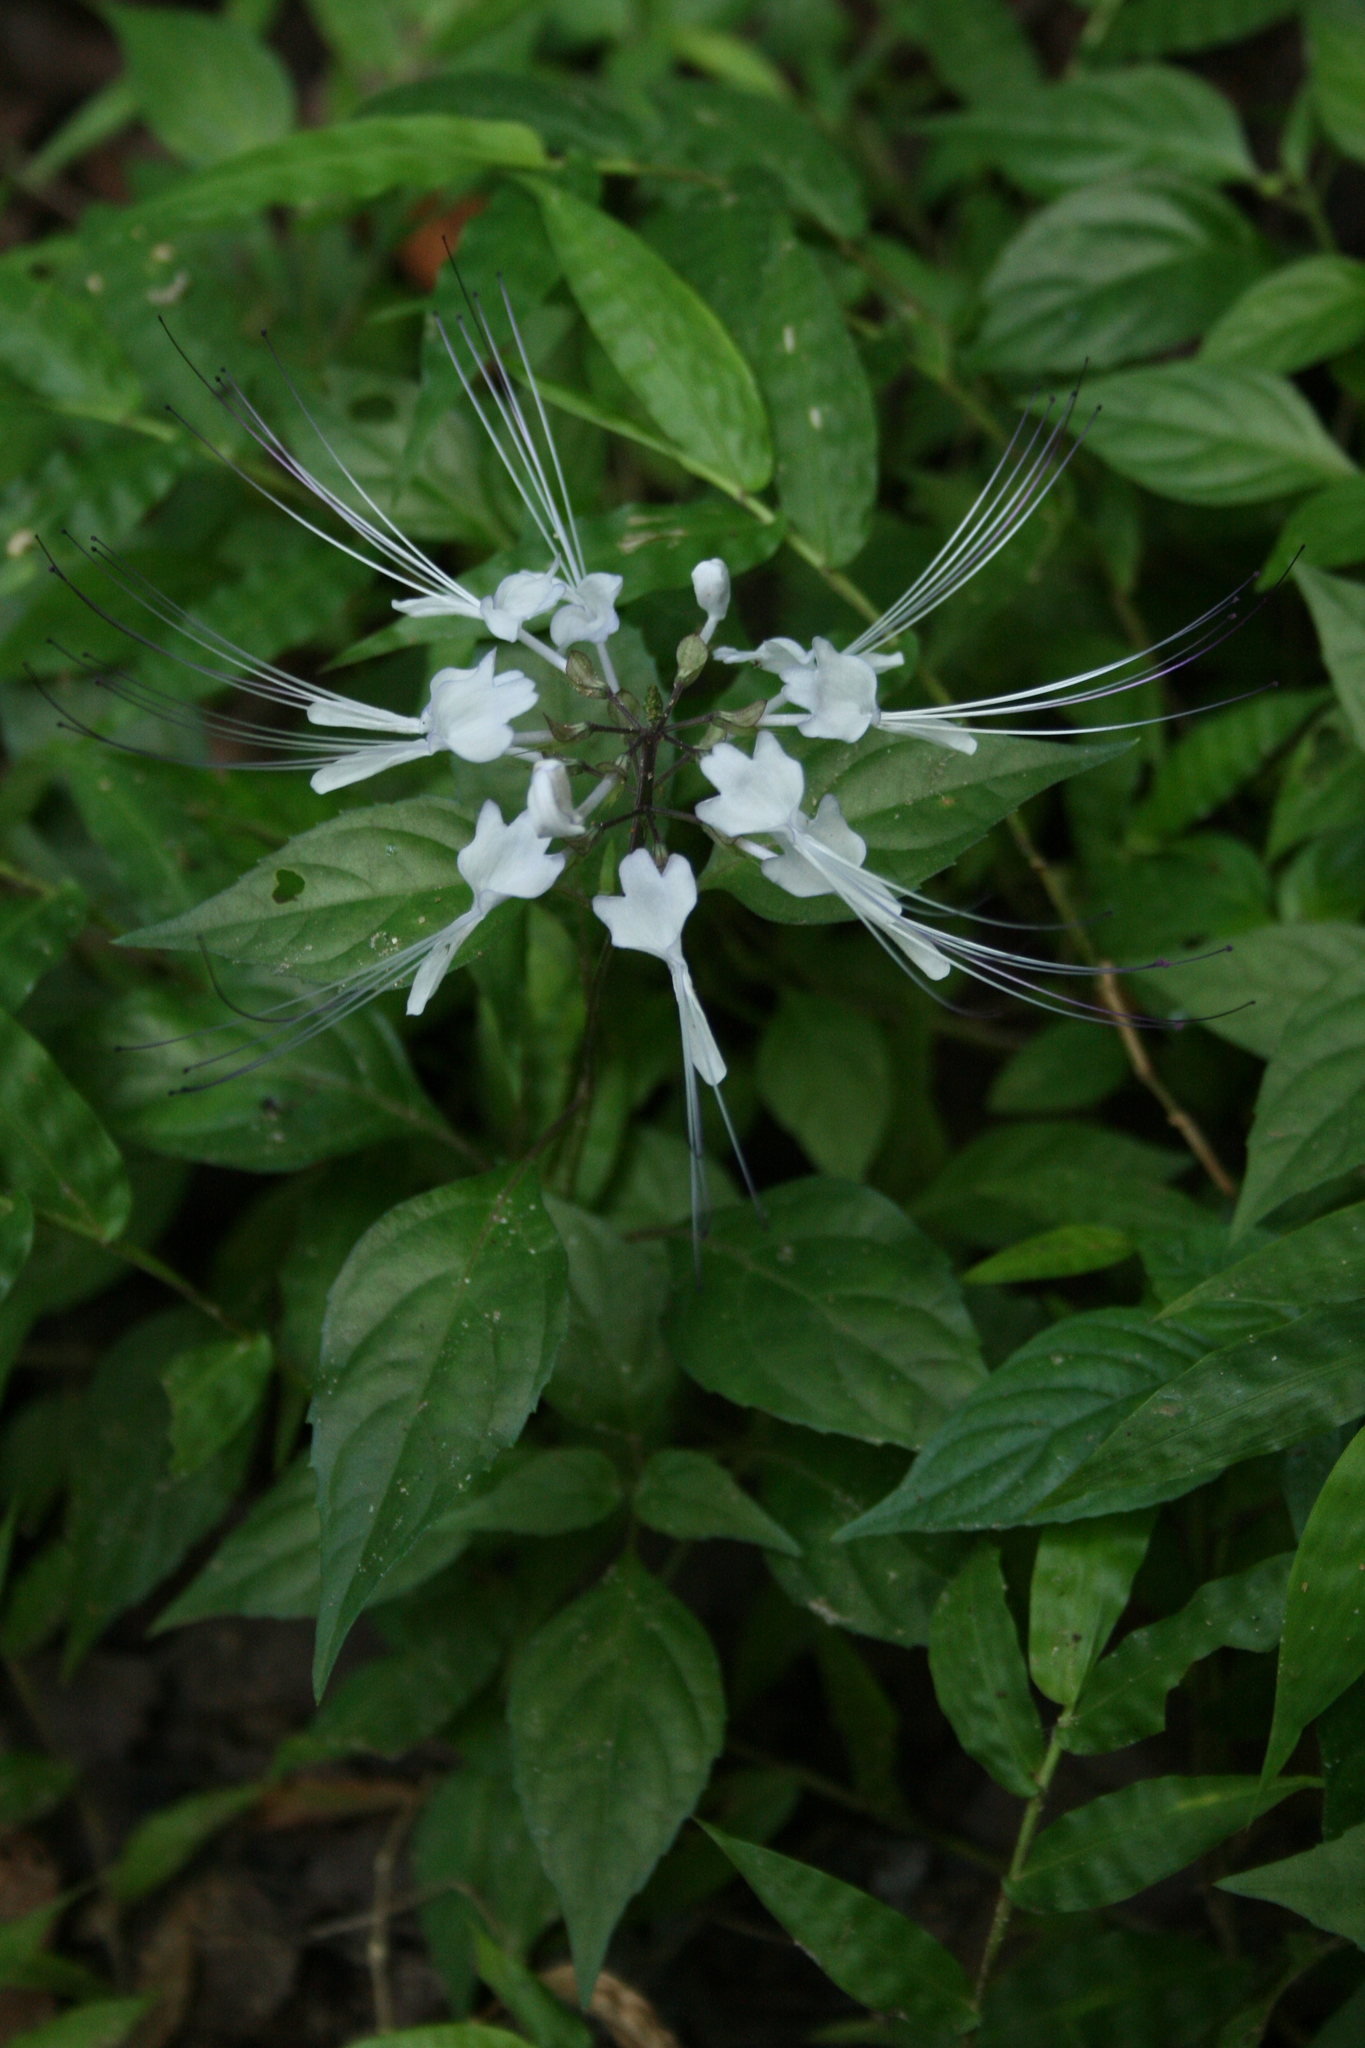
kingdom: Plantae
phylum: Tracheophyta
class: Magnoliopsida
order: Lamiales
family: Lamiaceae
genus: Orthosiphon
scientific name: Orthosiphon aristatus
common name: Whiskerplant
